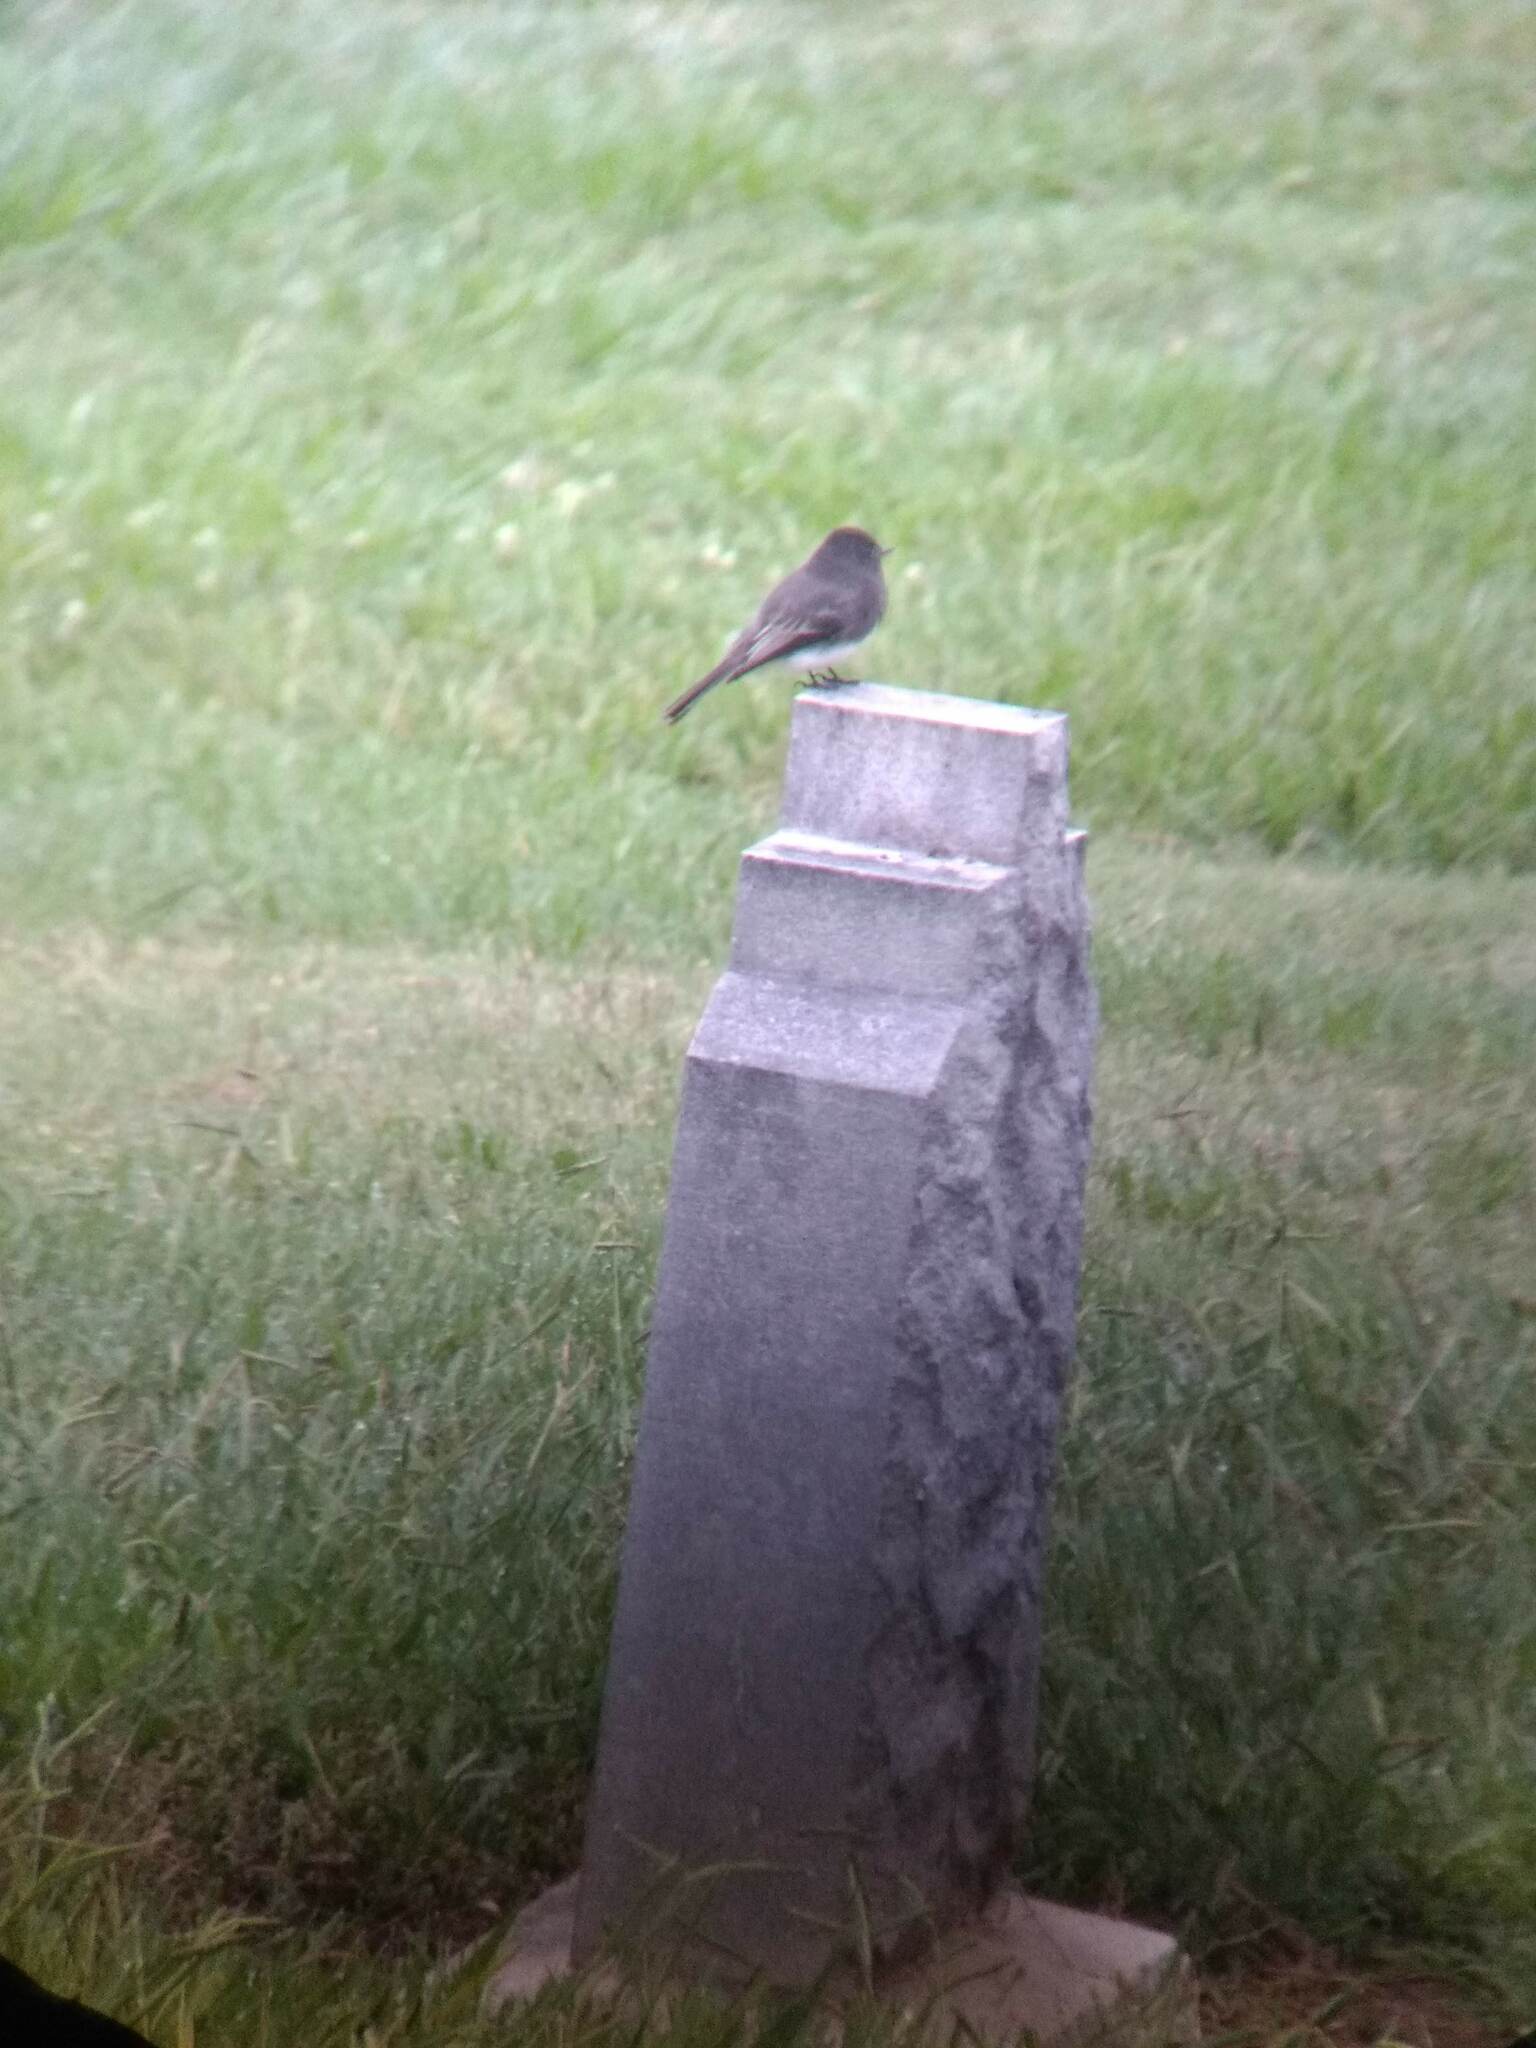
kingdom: Animalia
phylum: Chordata
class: Aves
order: Passeriformes
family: Tyrannidae
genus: Sayornis
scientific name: Sayornis nigricans
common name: Black phoebe
